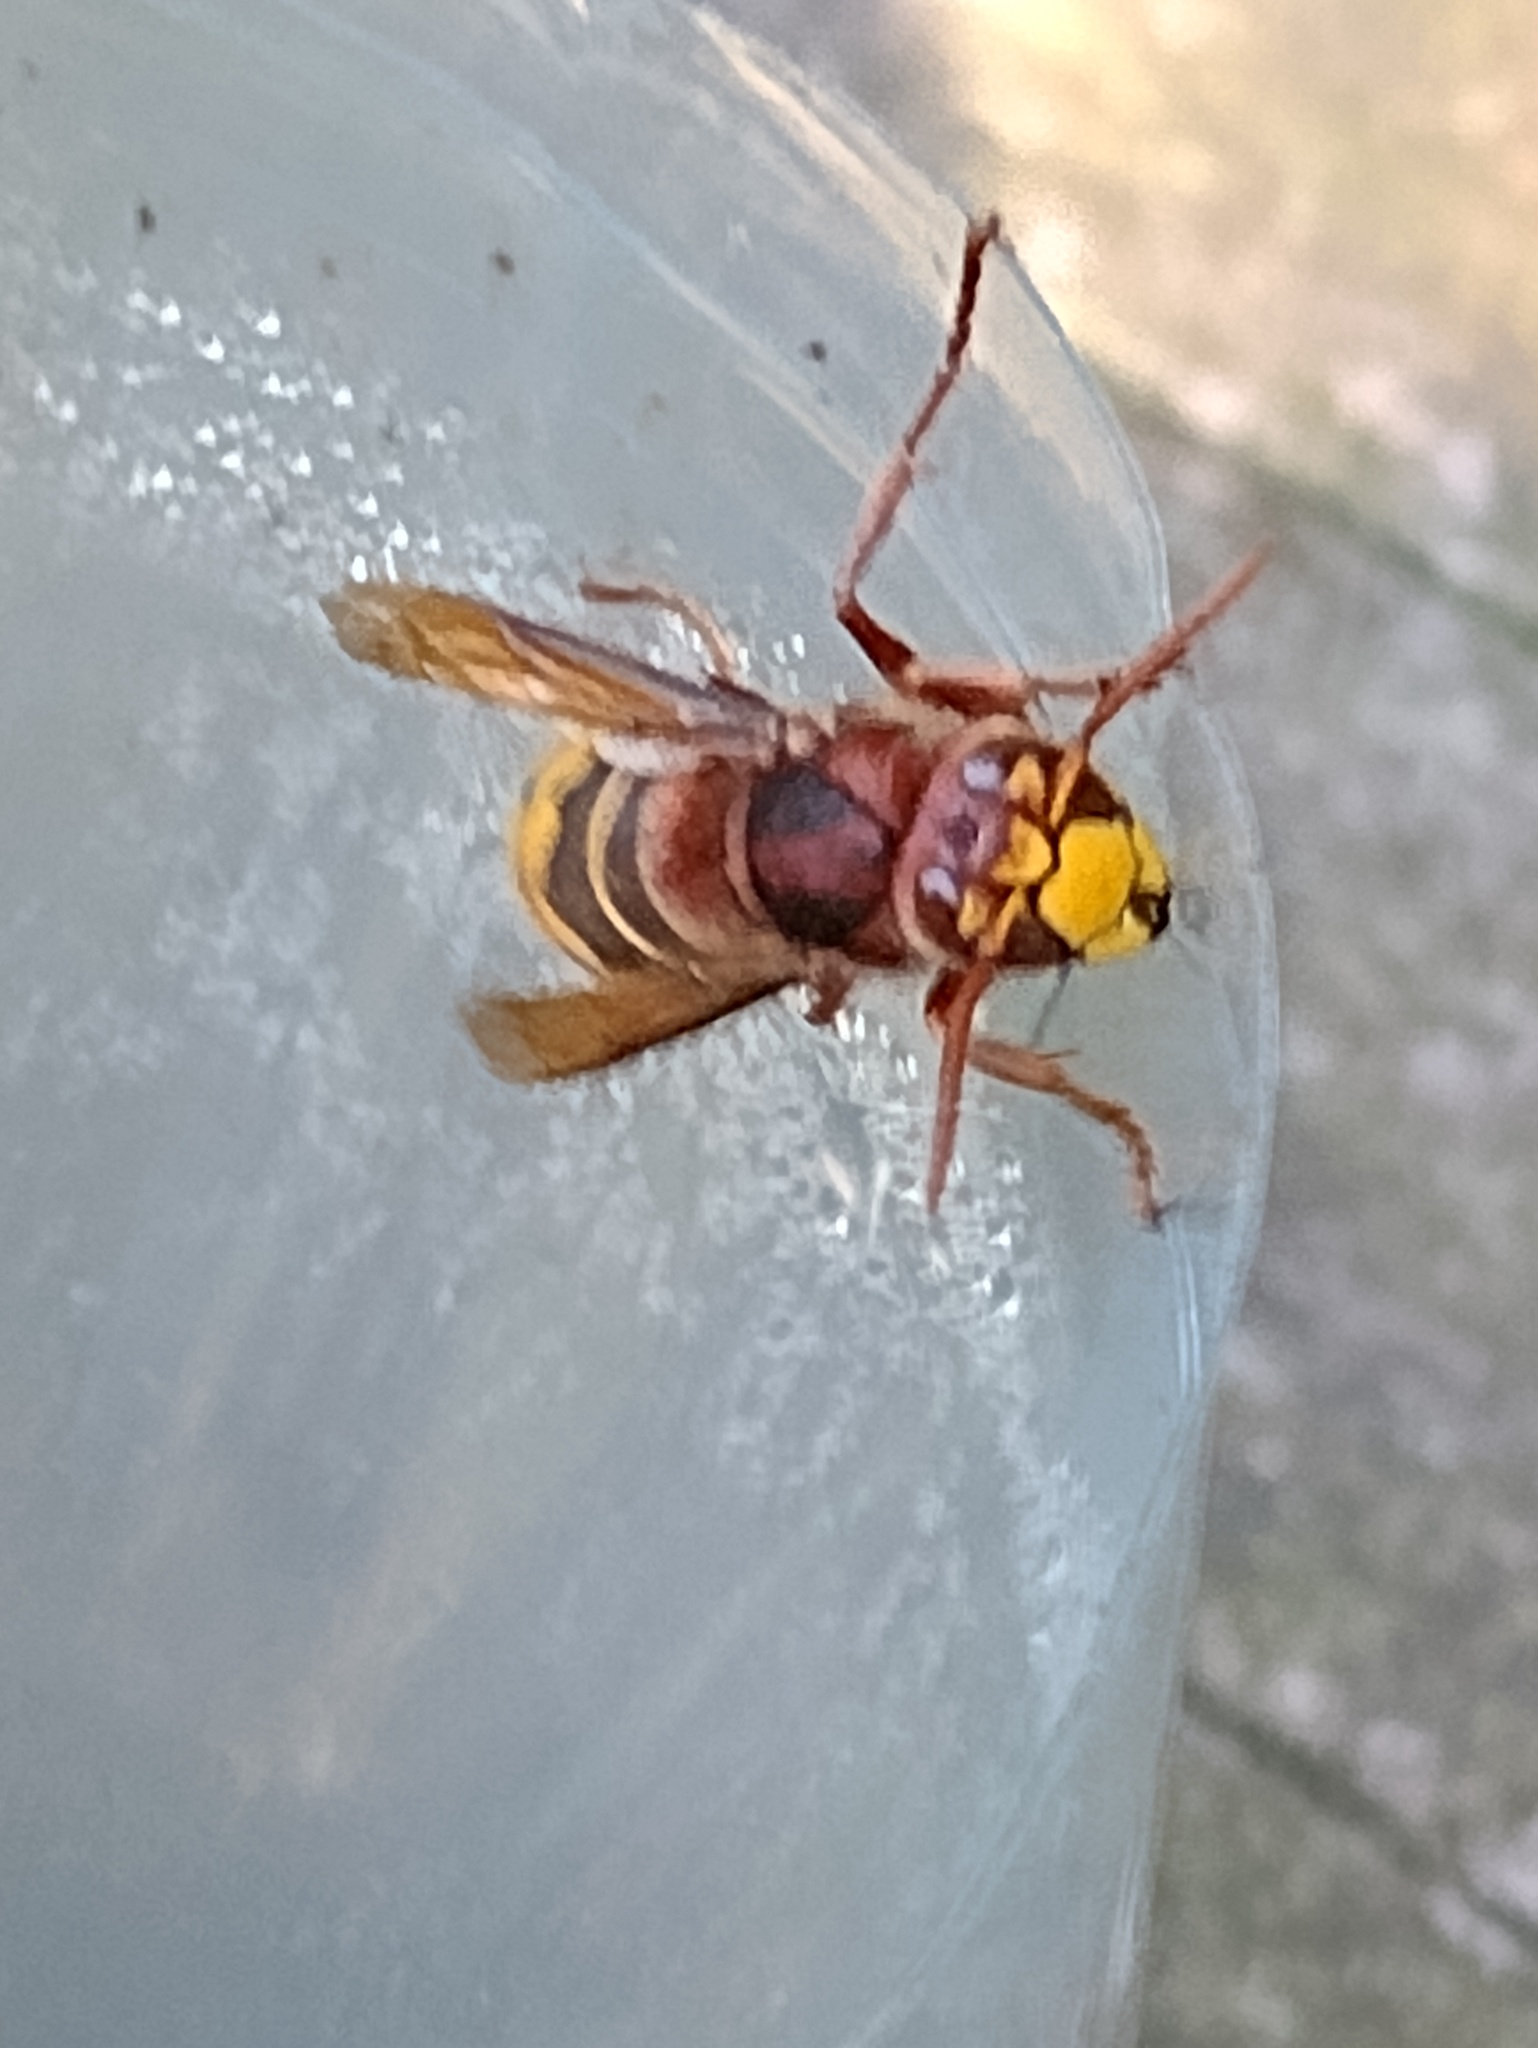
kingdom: Animalia
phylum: Arthropoda
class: Insecta
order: Hymenoptera
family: Vespidae
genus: Vespa
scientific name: Vespa crabro
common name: Hornet
